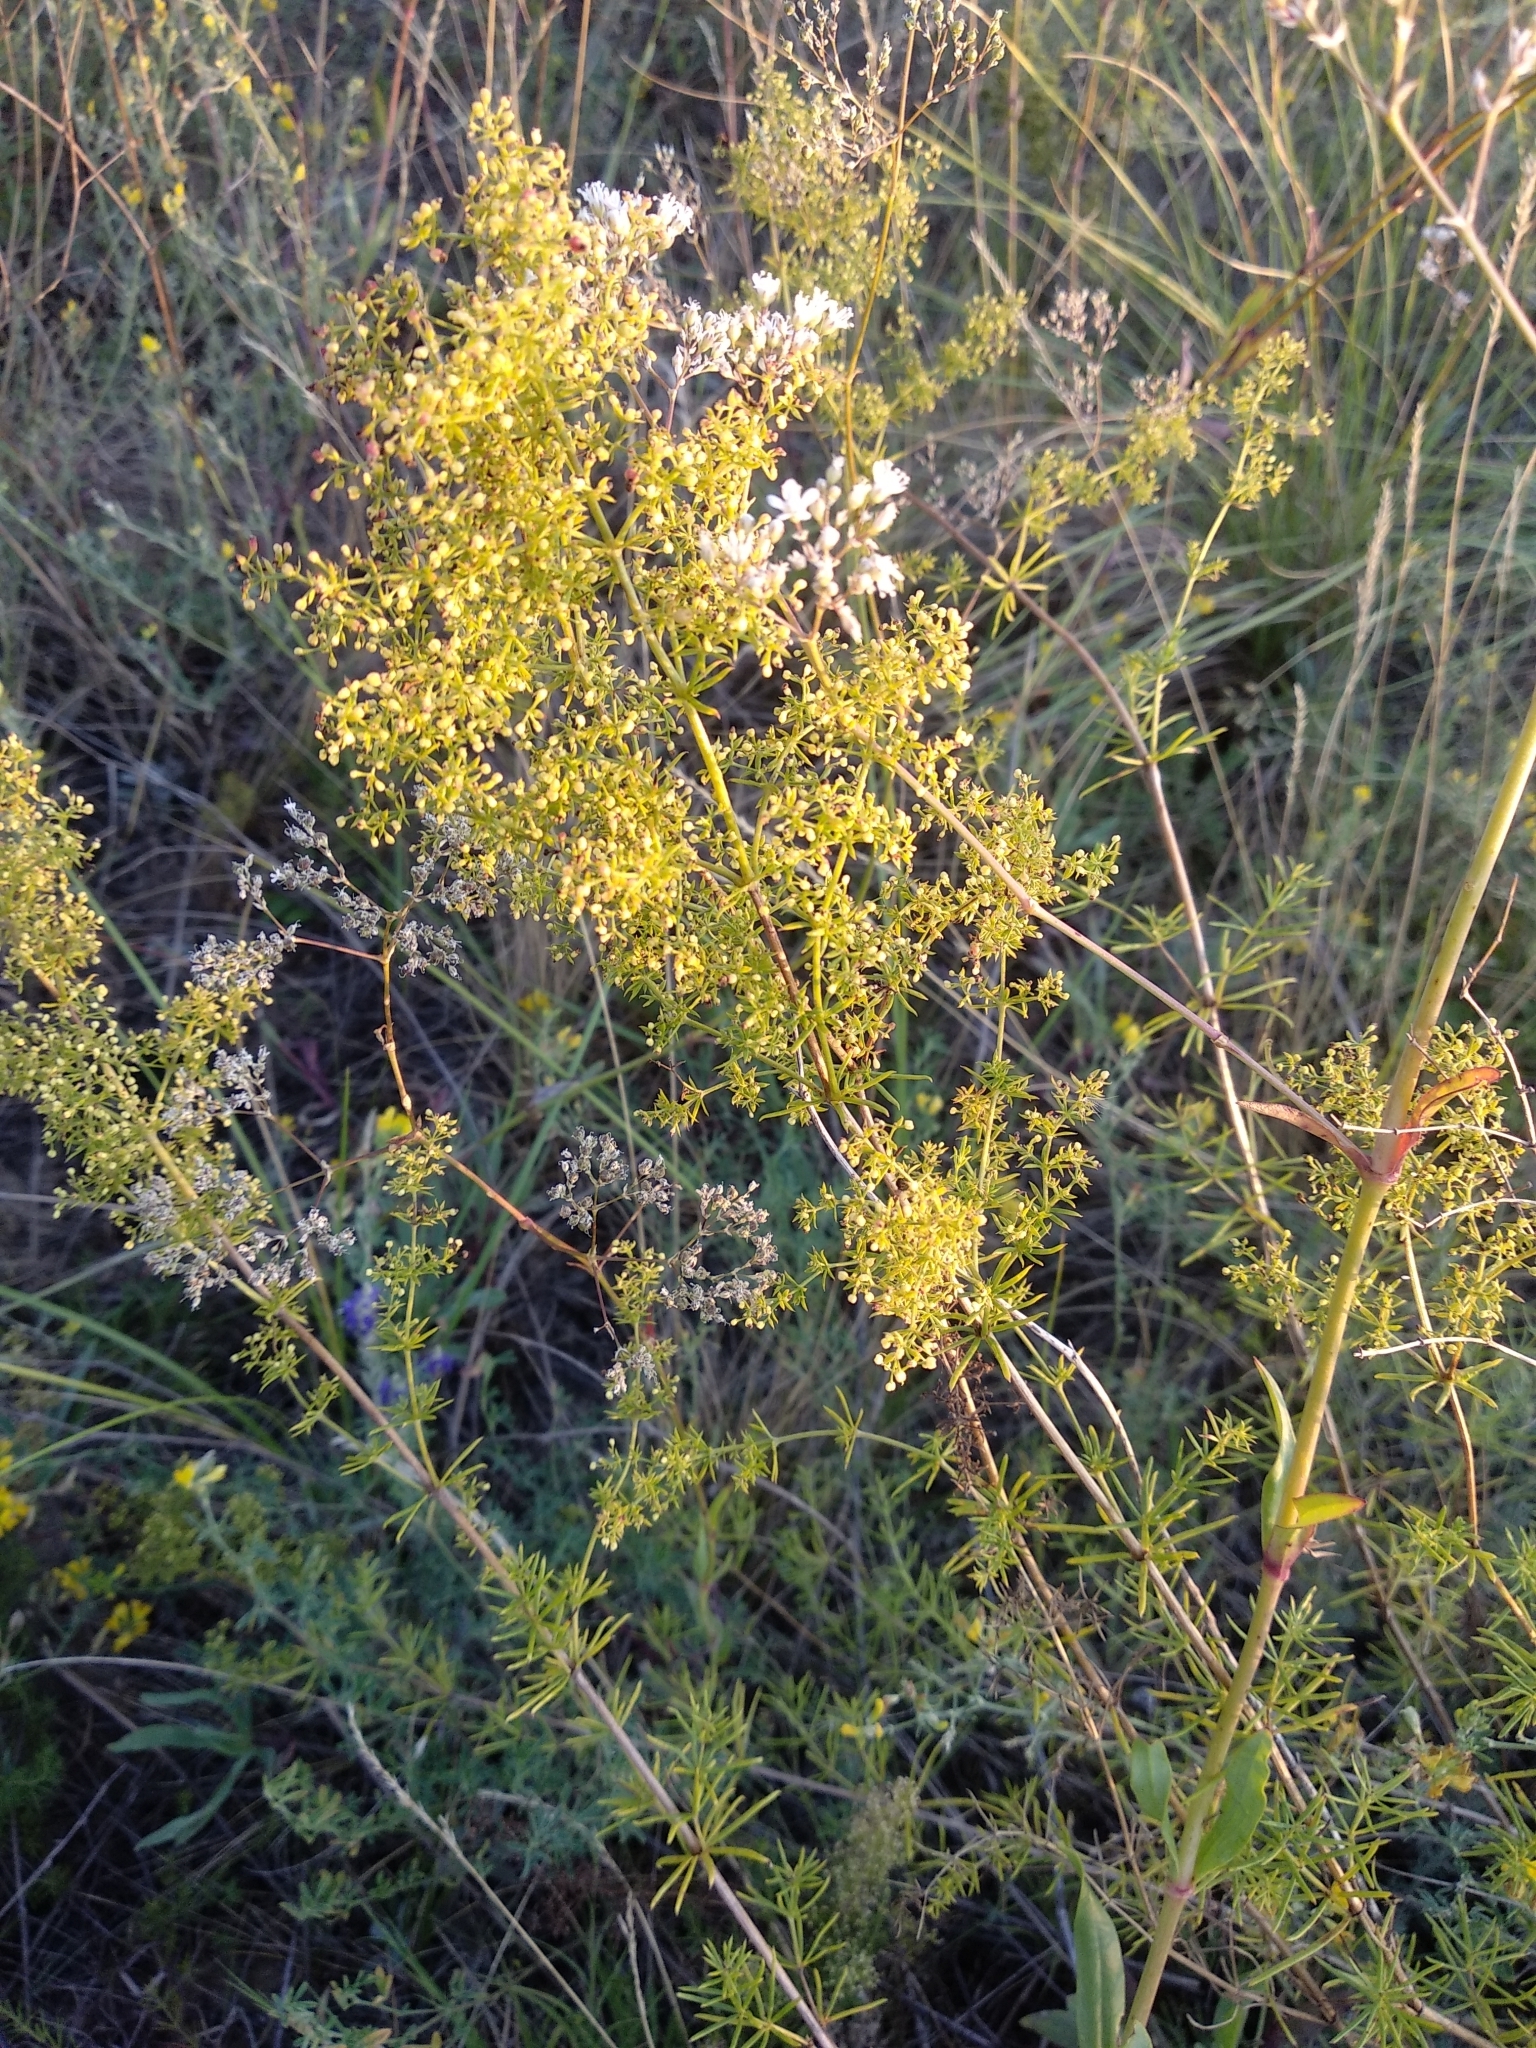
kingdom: Plantae
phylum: Tracheophyta
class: Magnoliopsida
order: Gentianales
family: Rubiaceae
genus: Galium
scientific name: Galium verum
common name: Lady's bedstraw
